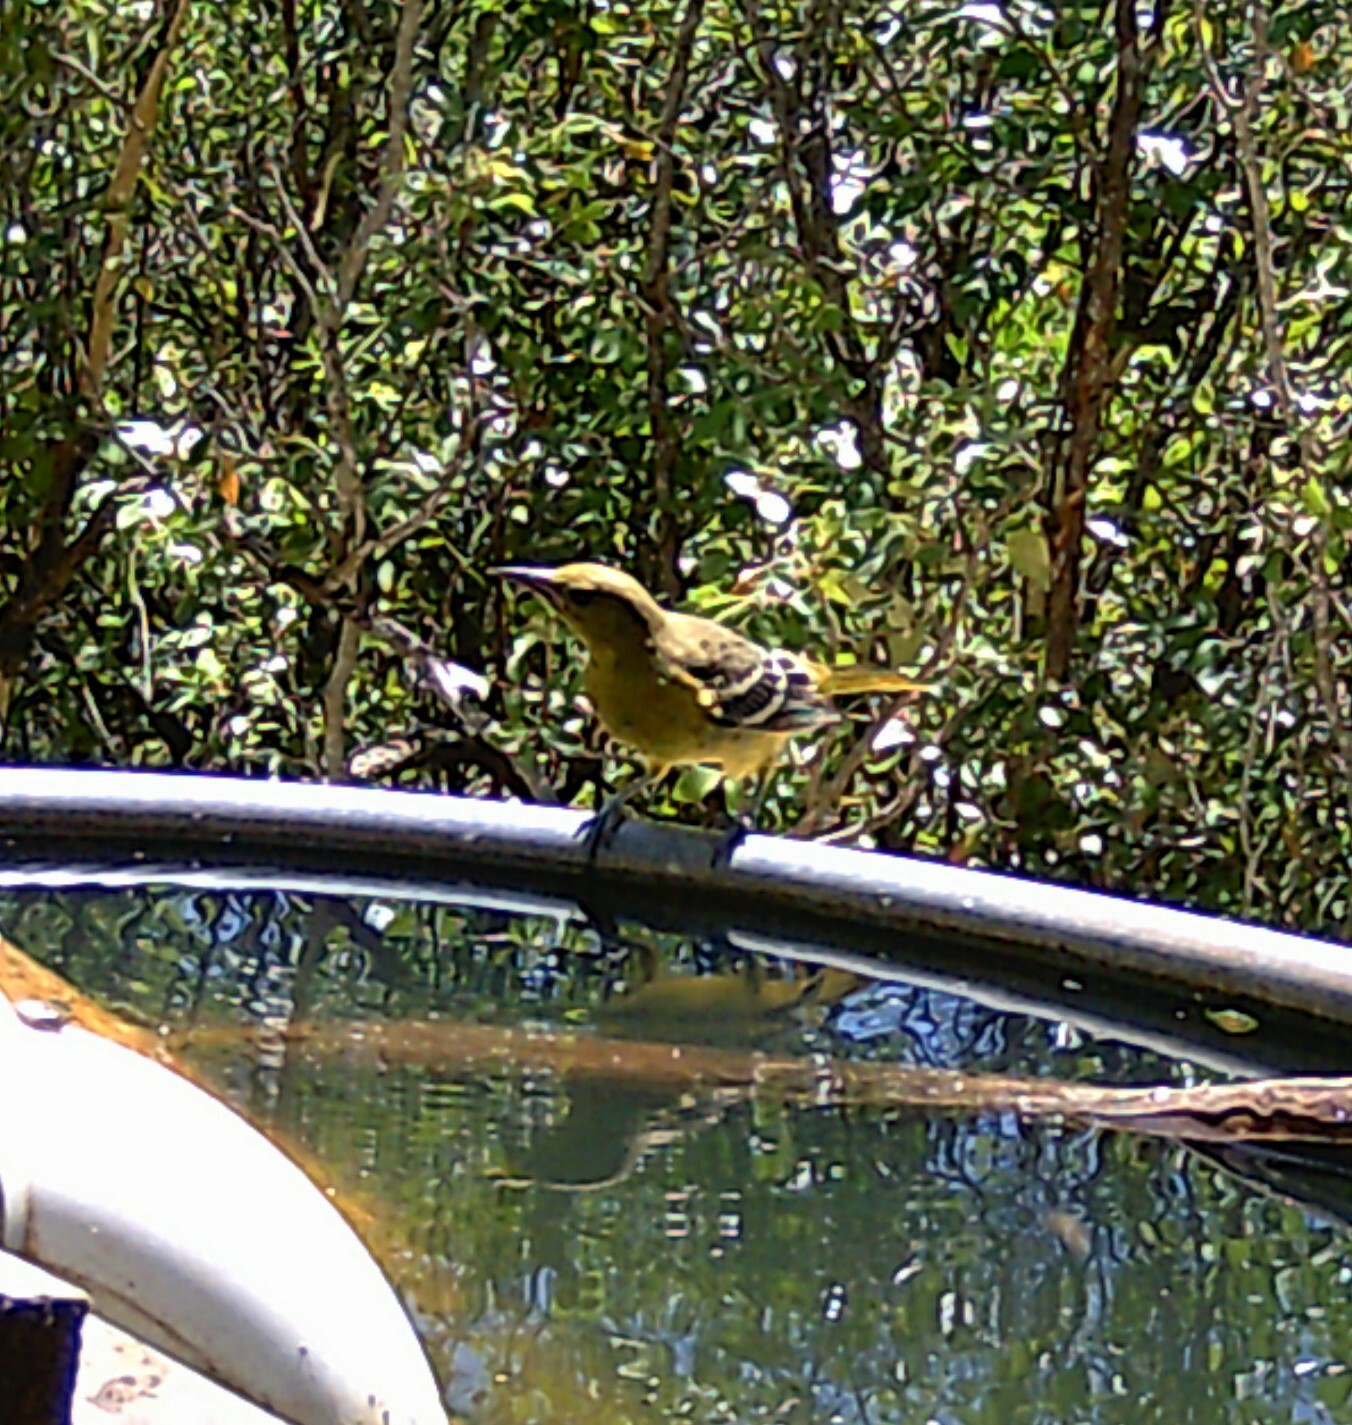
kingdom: Animalia
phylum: Chordata
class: Aves
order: Passeriformes
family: Icteridae
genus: Icterus
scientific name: Icterus parisorum
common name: Scott's oriole
